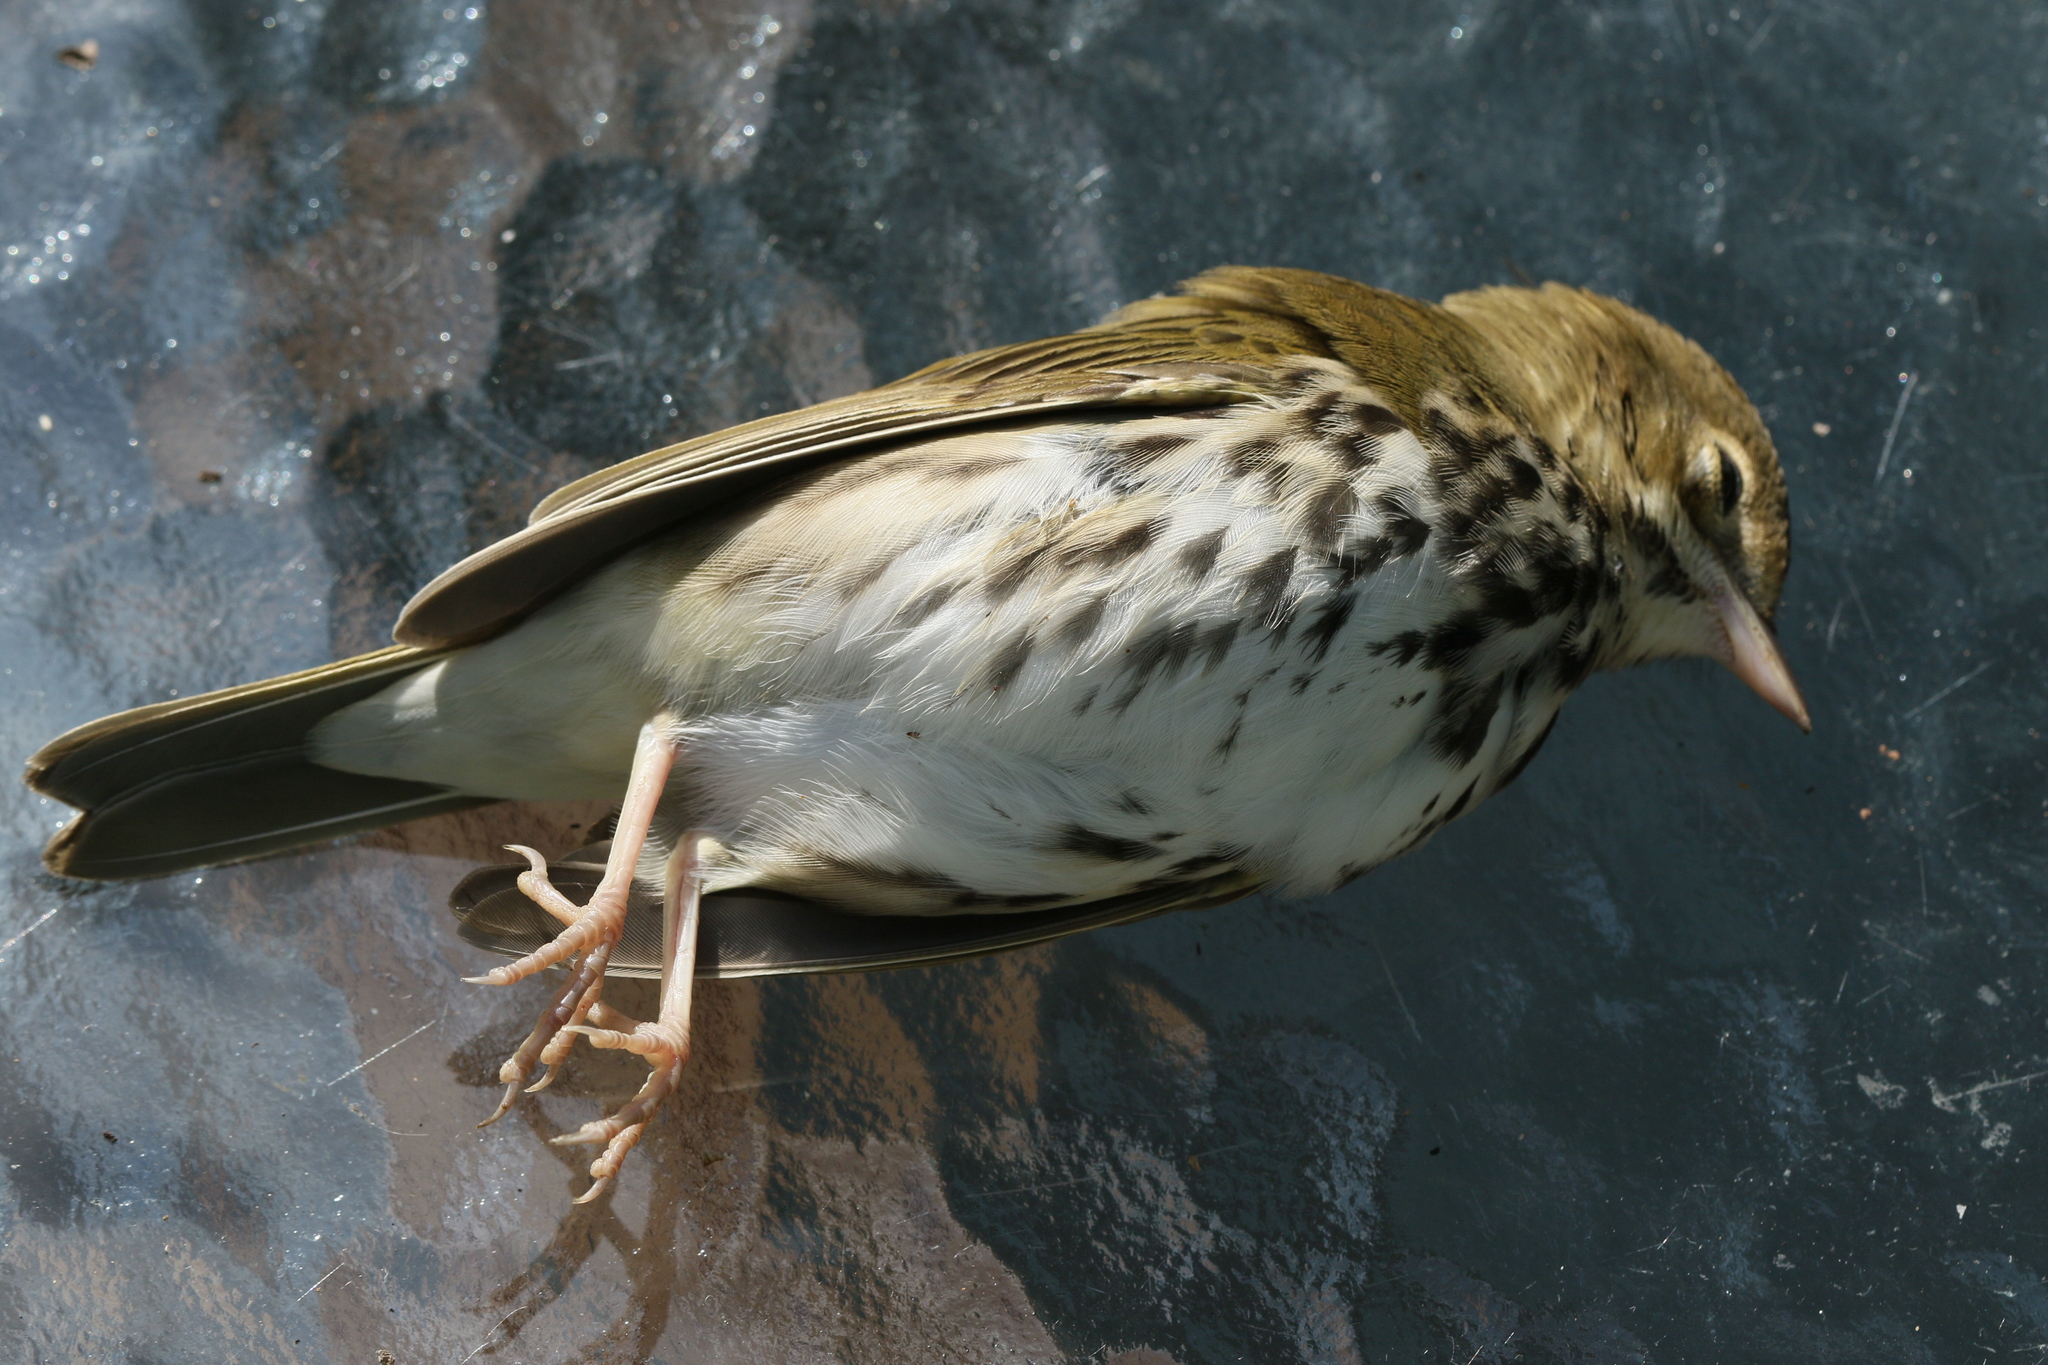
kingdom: Animalia
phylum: Chordata
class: Aves
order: Passeriformes
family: Parulidae
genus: Seiurus
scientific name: Seiurus aurocapilla
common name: Ovenbird
